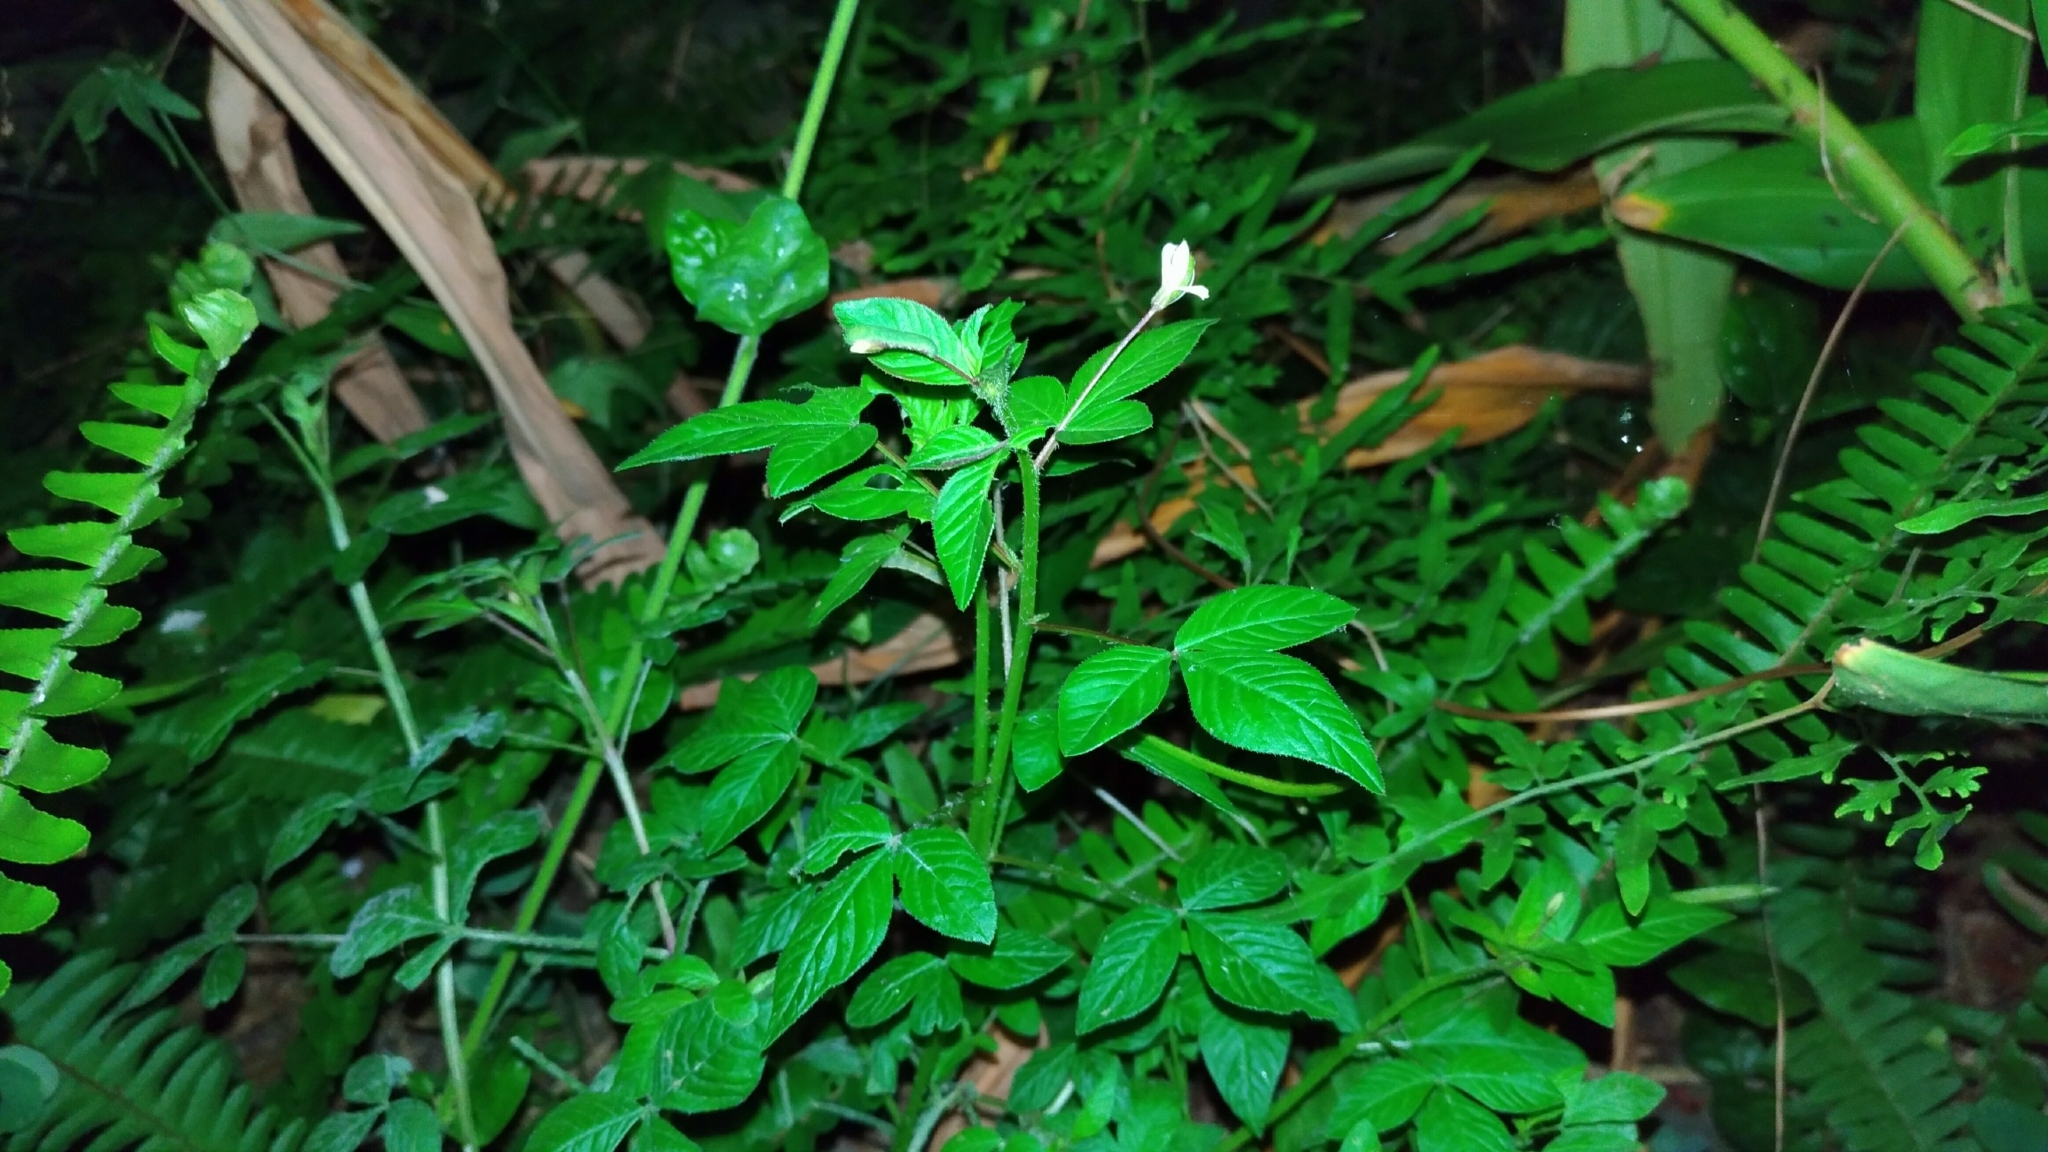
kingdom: Plantae
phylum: Tracheophyta
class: Magnoliopsida
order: Brassicales
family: Cleomaceae
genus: Sieruela
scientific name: Sieruela rutidosperma
